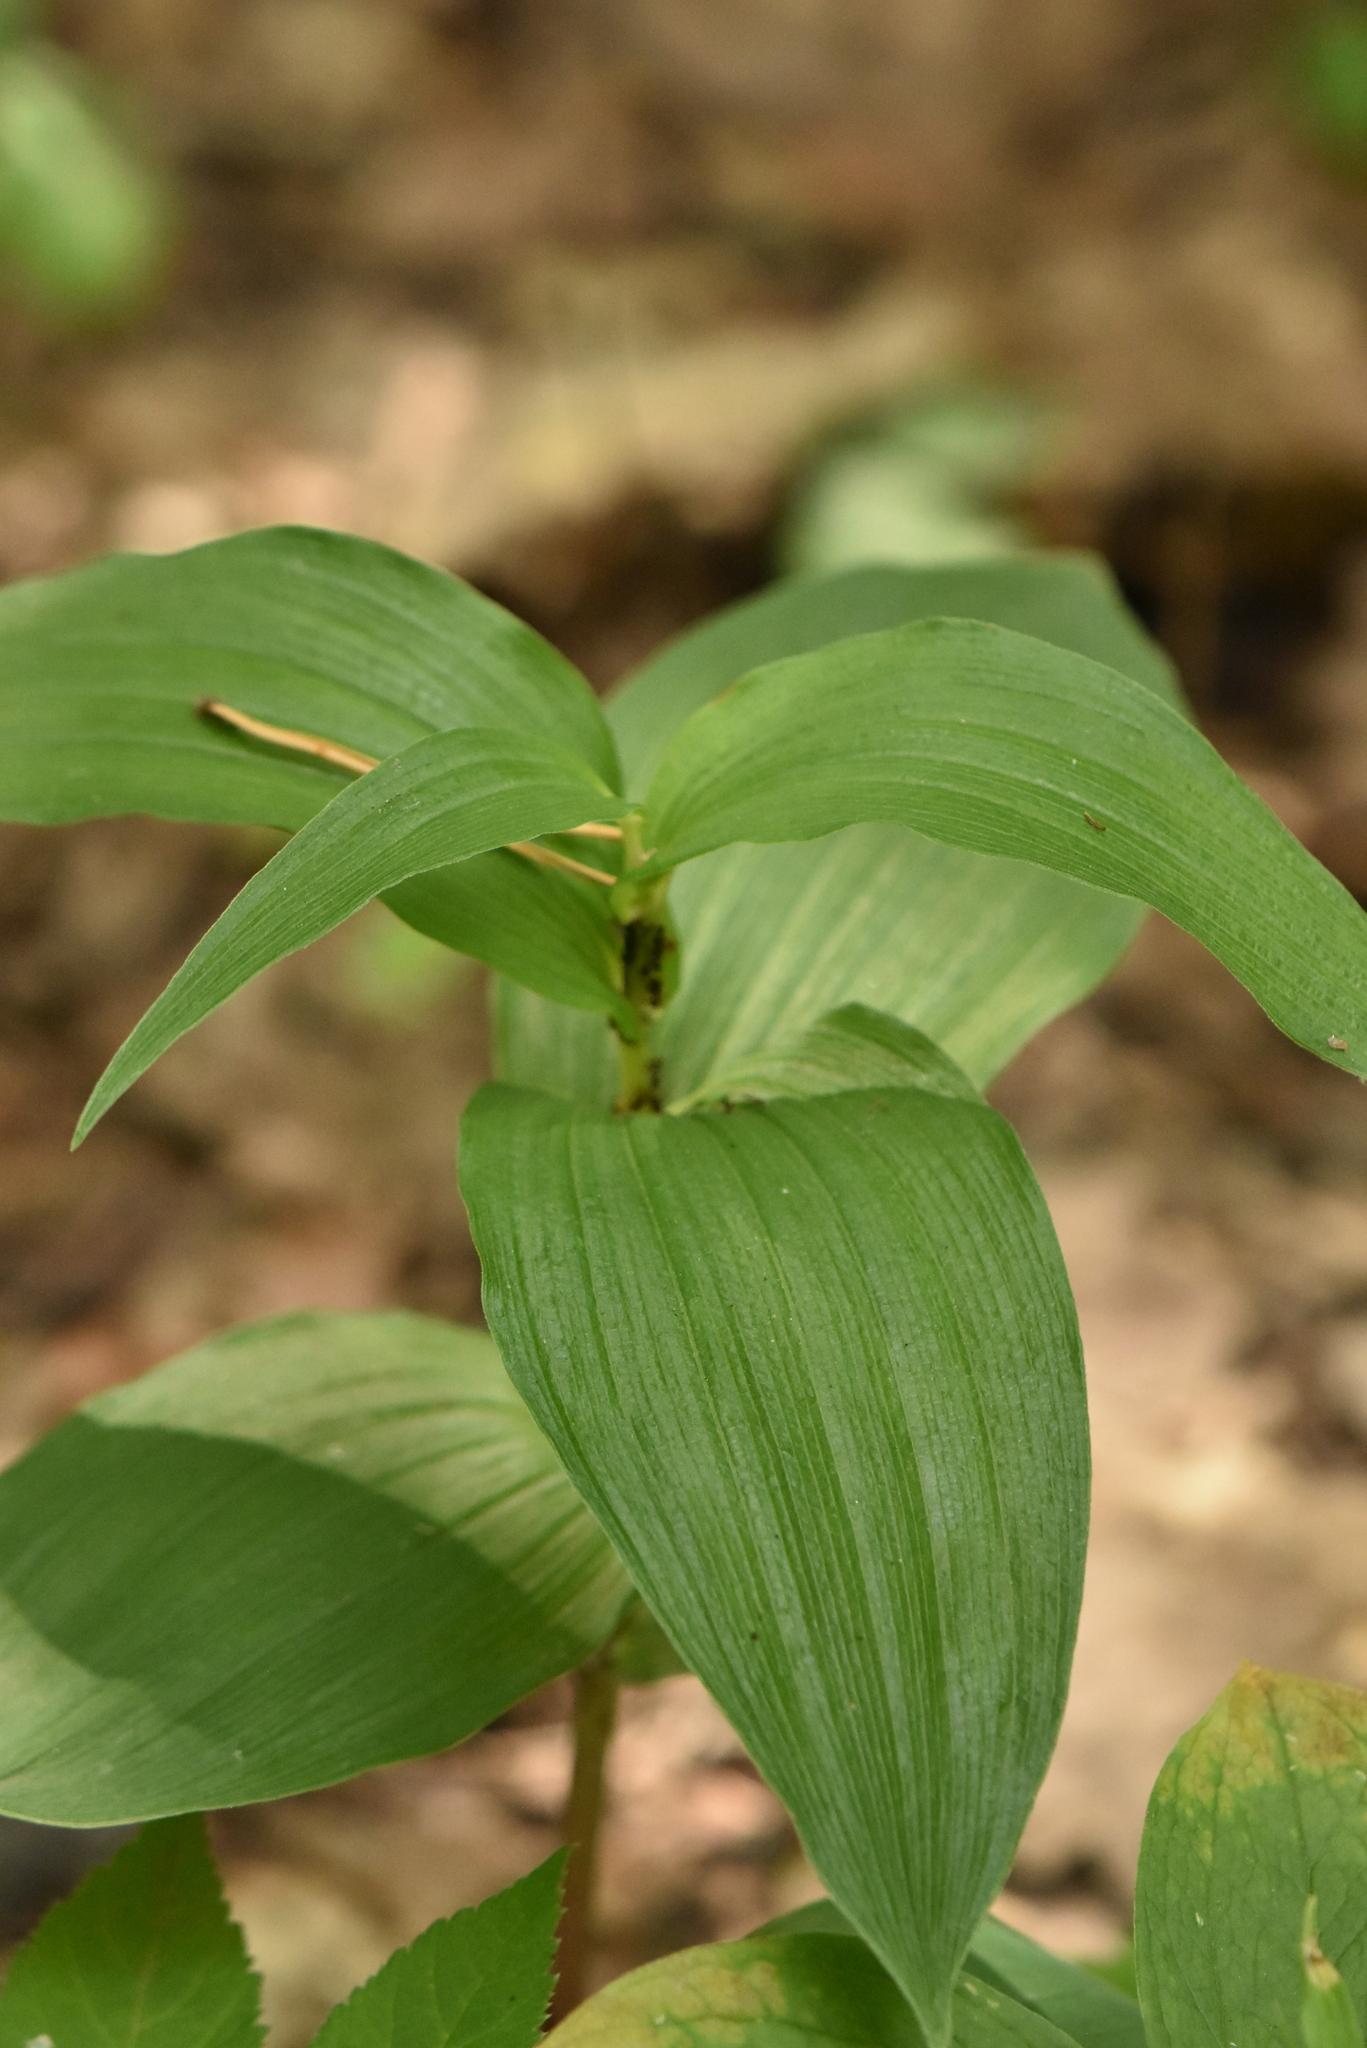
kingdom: Plantae
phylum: Tracheophyta
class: Liliopsida
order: Asparagales
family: Orchidaceae
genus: Epipactis
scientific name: Epipactis helleborine
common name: Broad-leaved helleborine
